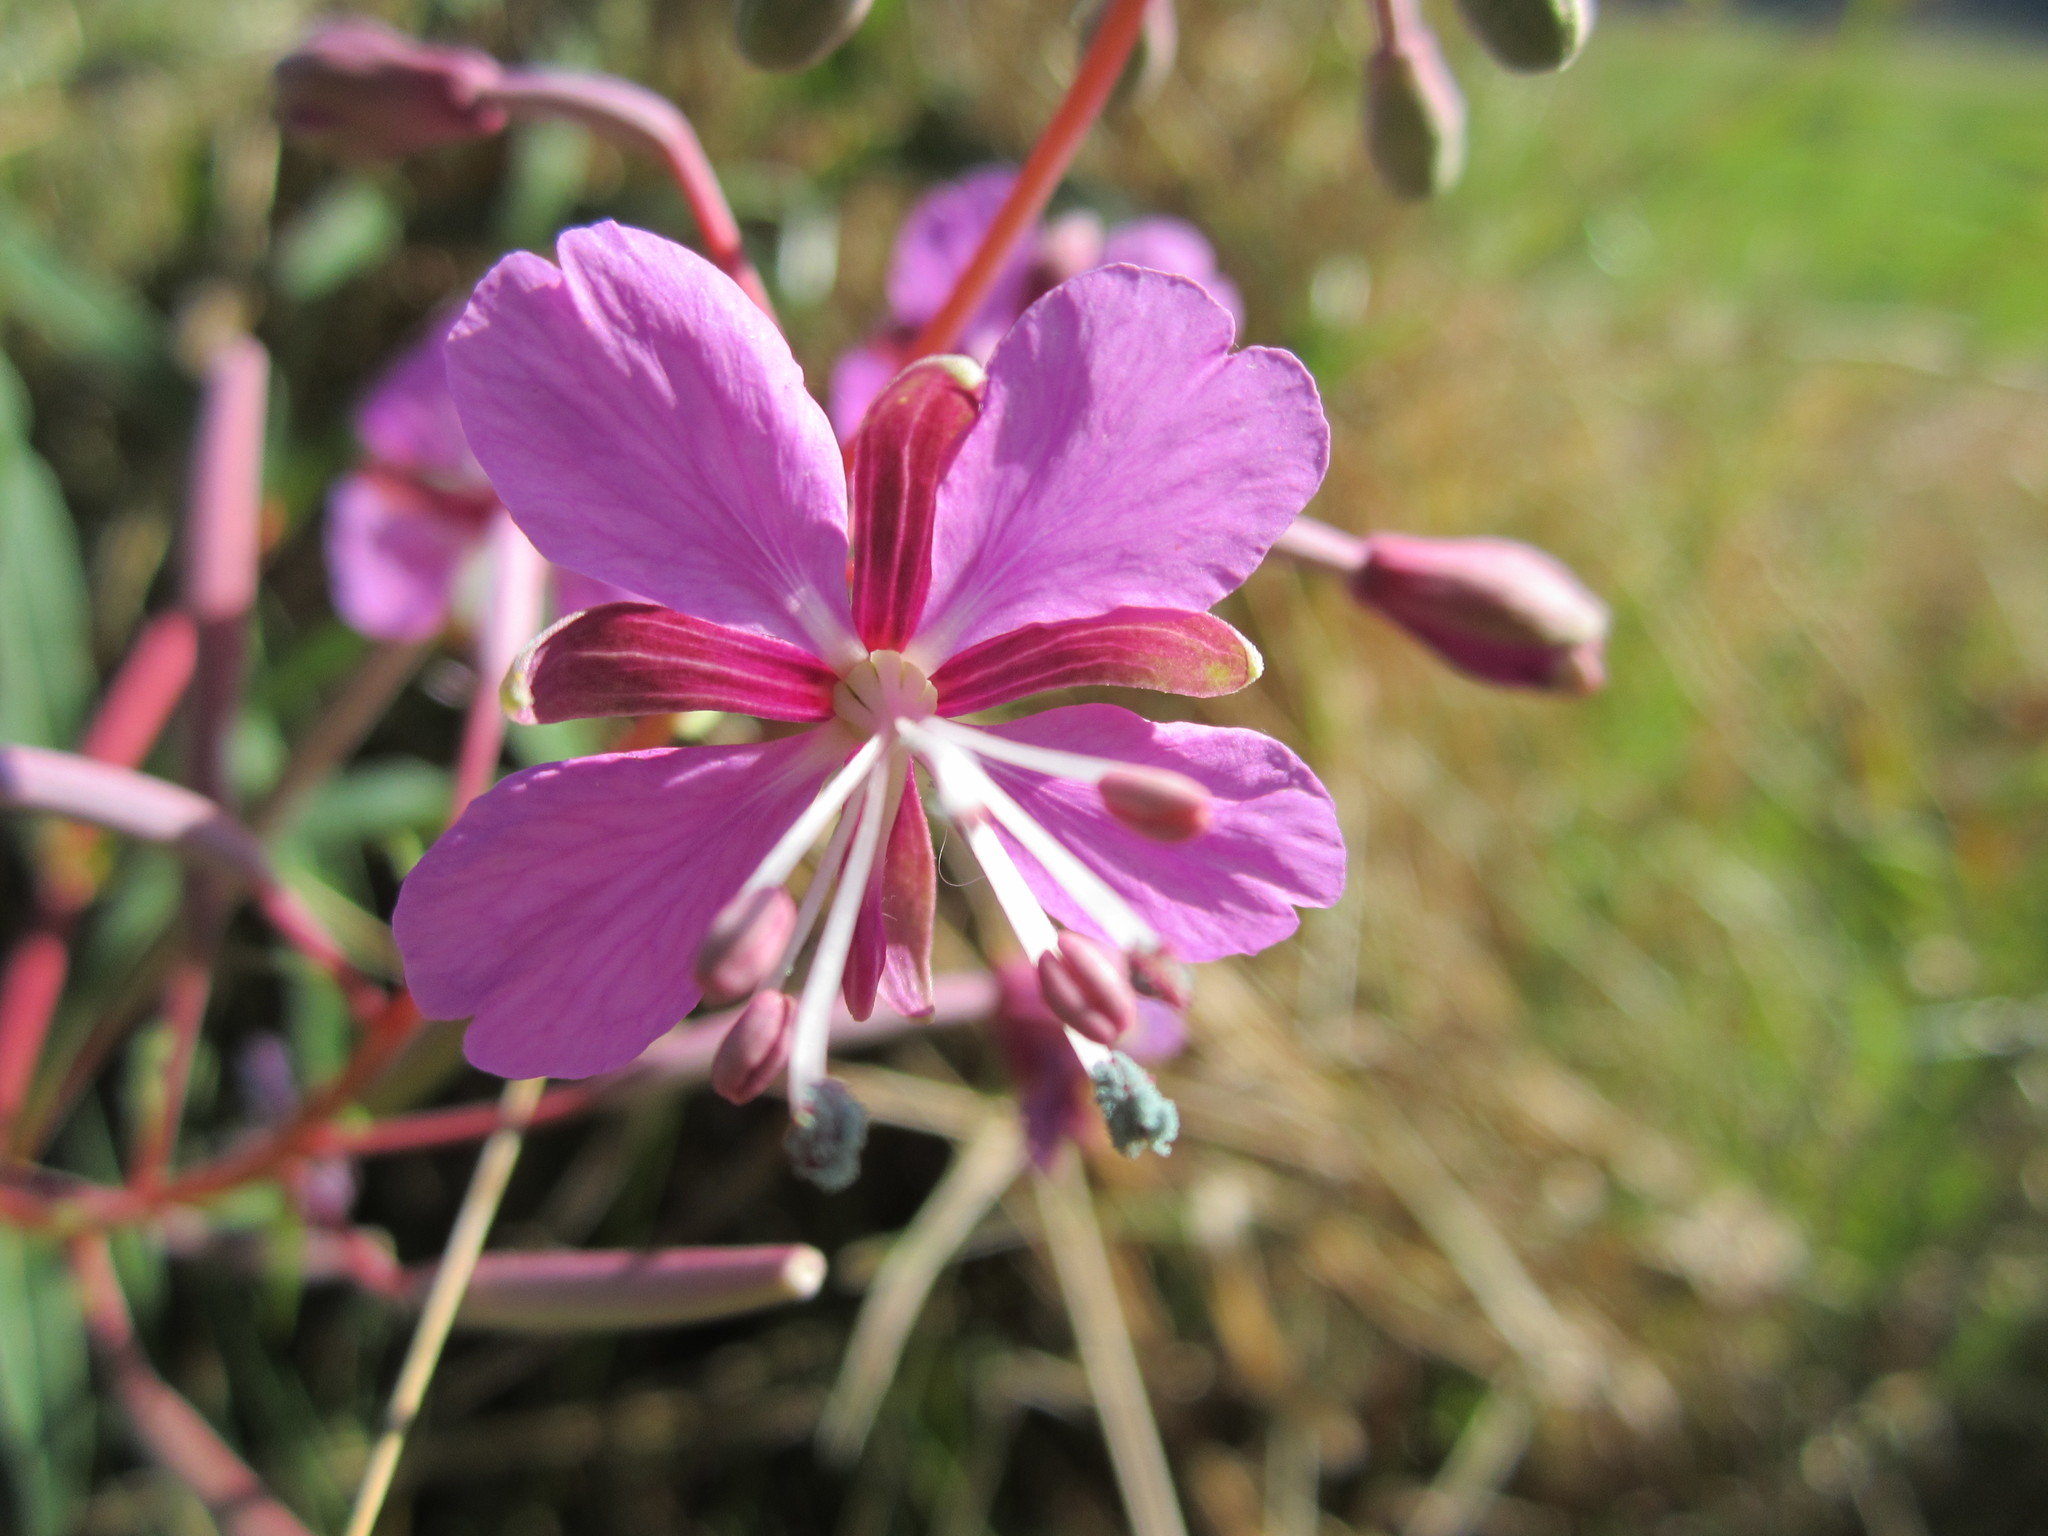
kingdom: Plantae
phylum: Tracheophyta
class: Magnoliopsida
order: Myrtales
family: Onagraceae
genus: Chamaenerion
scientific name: Chamaenerion angustifolium
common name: Fireweed
